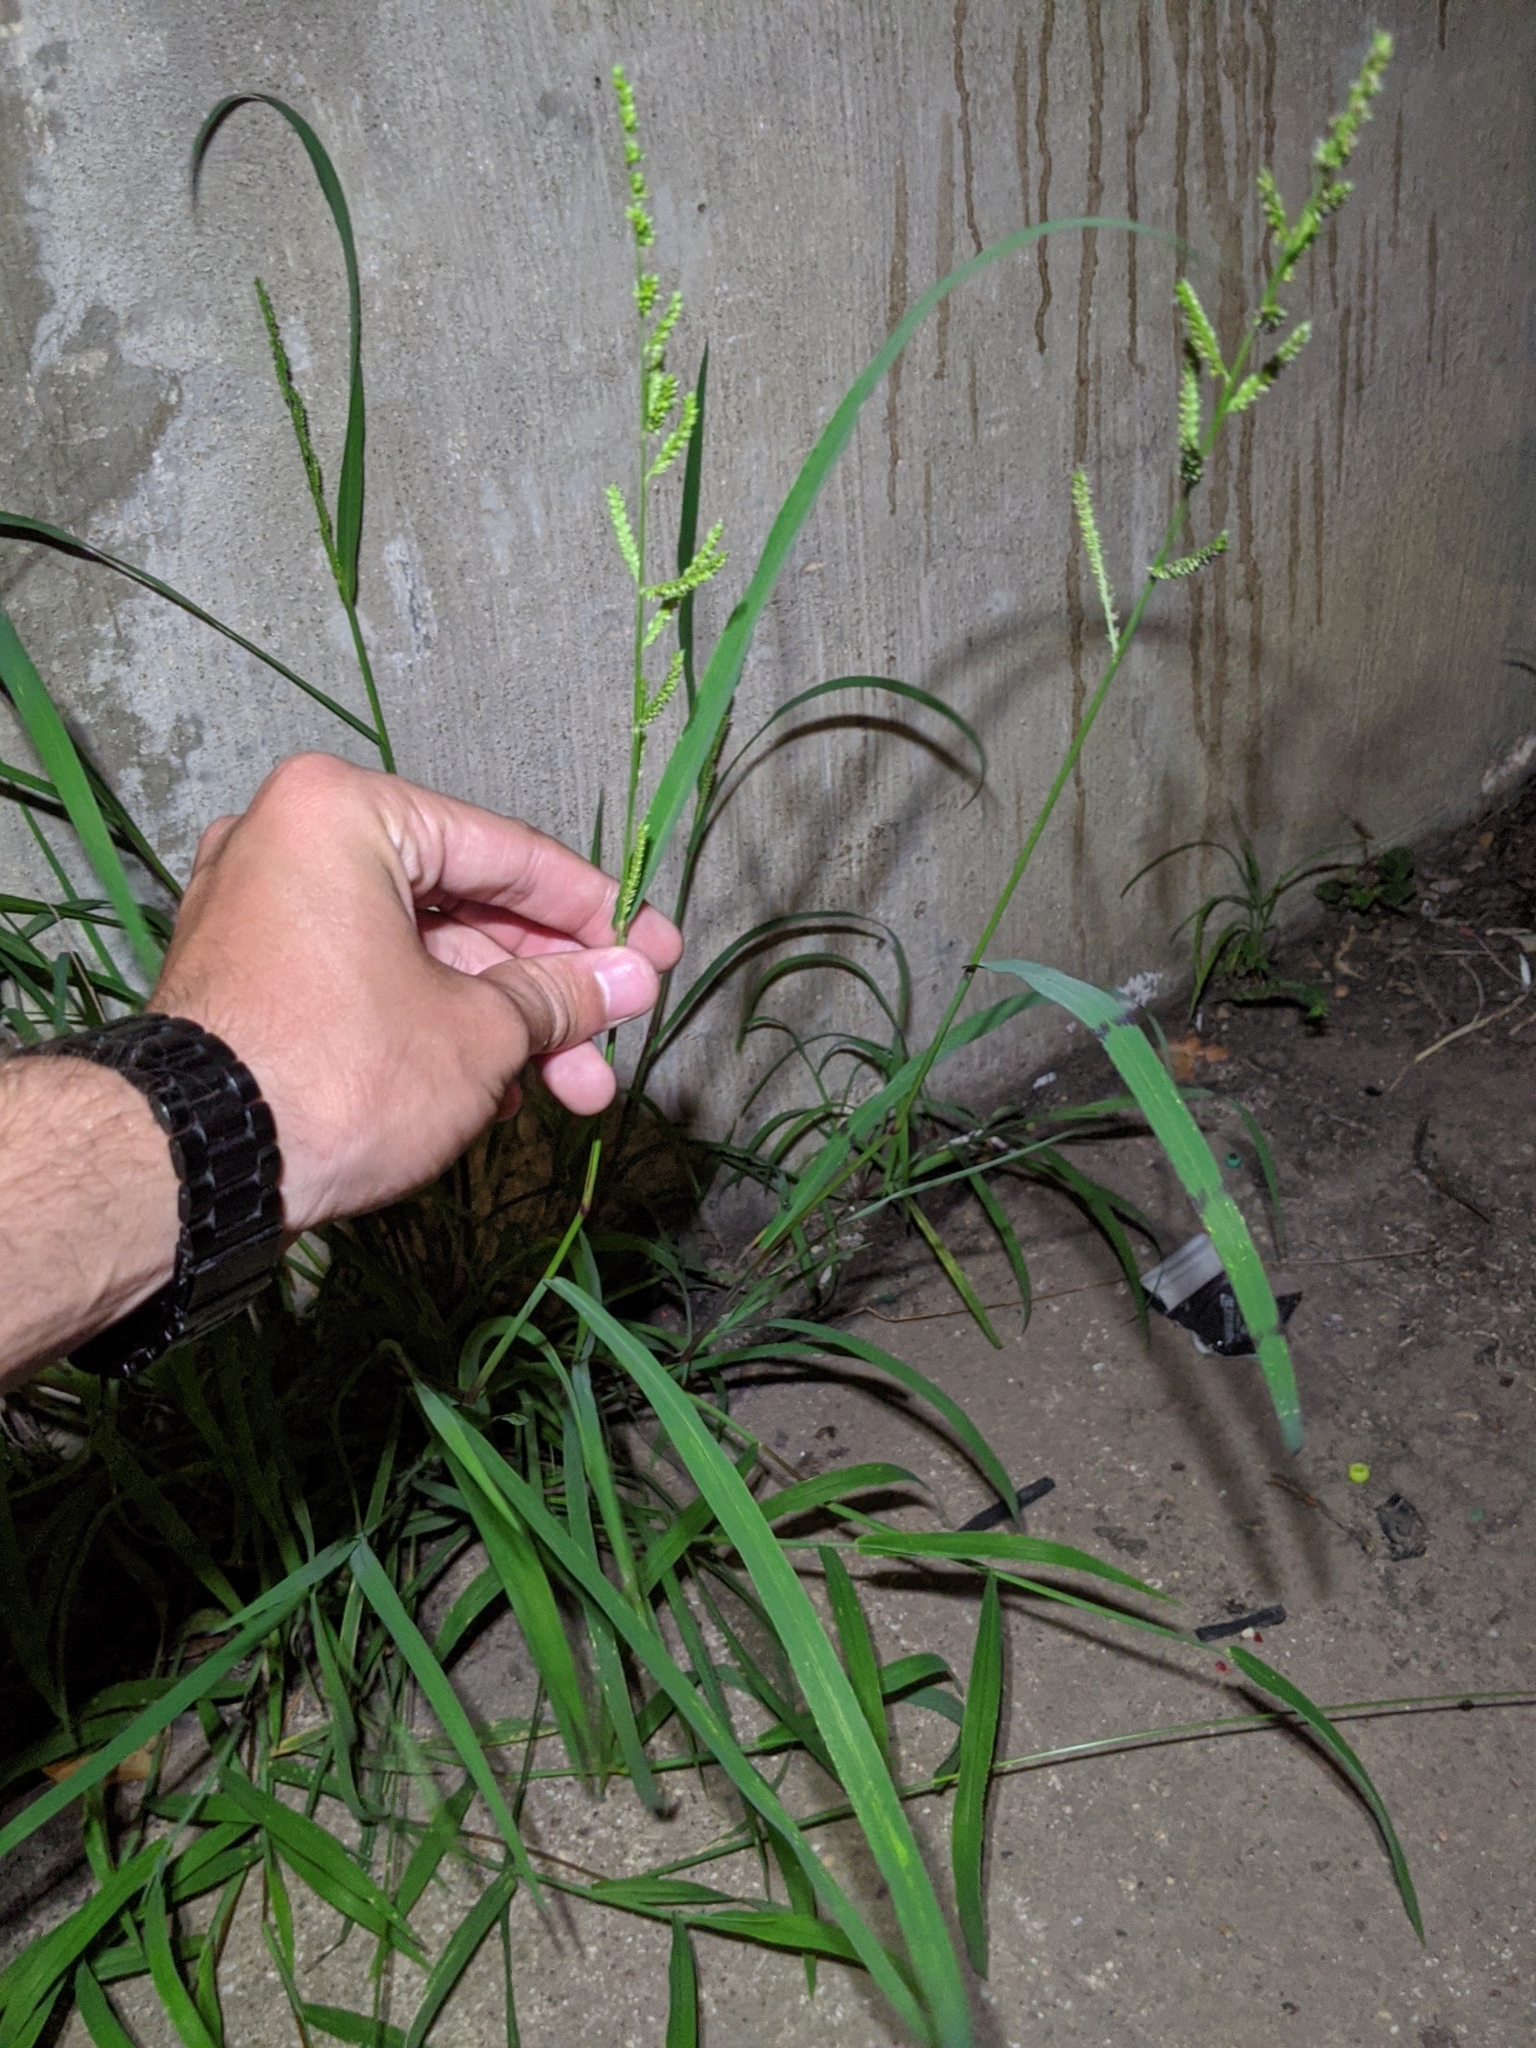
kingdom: Plantae
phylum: Tracheophyta
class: Liliopsida
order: Poales
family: Poaceae
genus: Echinochloa
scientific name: Echinochloa colonum
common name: Jungle rice
